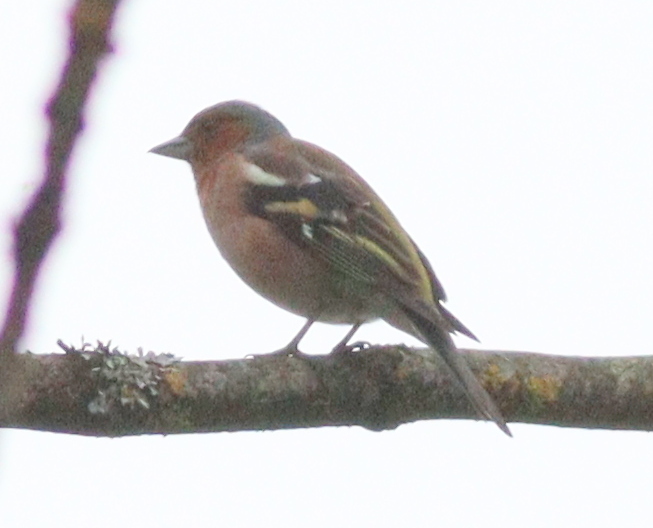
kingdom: Animalia
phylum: Chordata
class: Aves
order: Passeriformes
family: Fringillidae
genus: Fringilla
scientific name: Fringilla coelebs
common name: Common chaffinch
